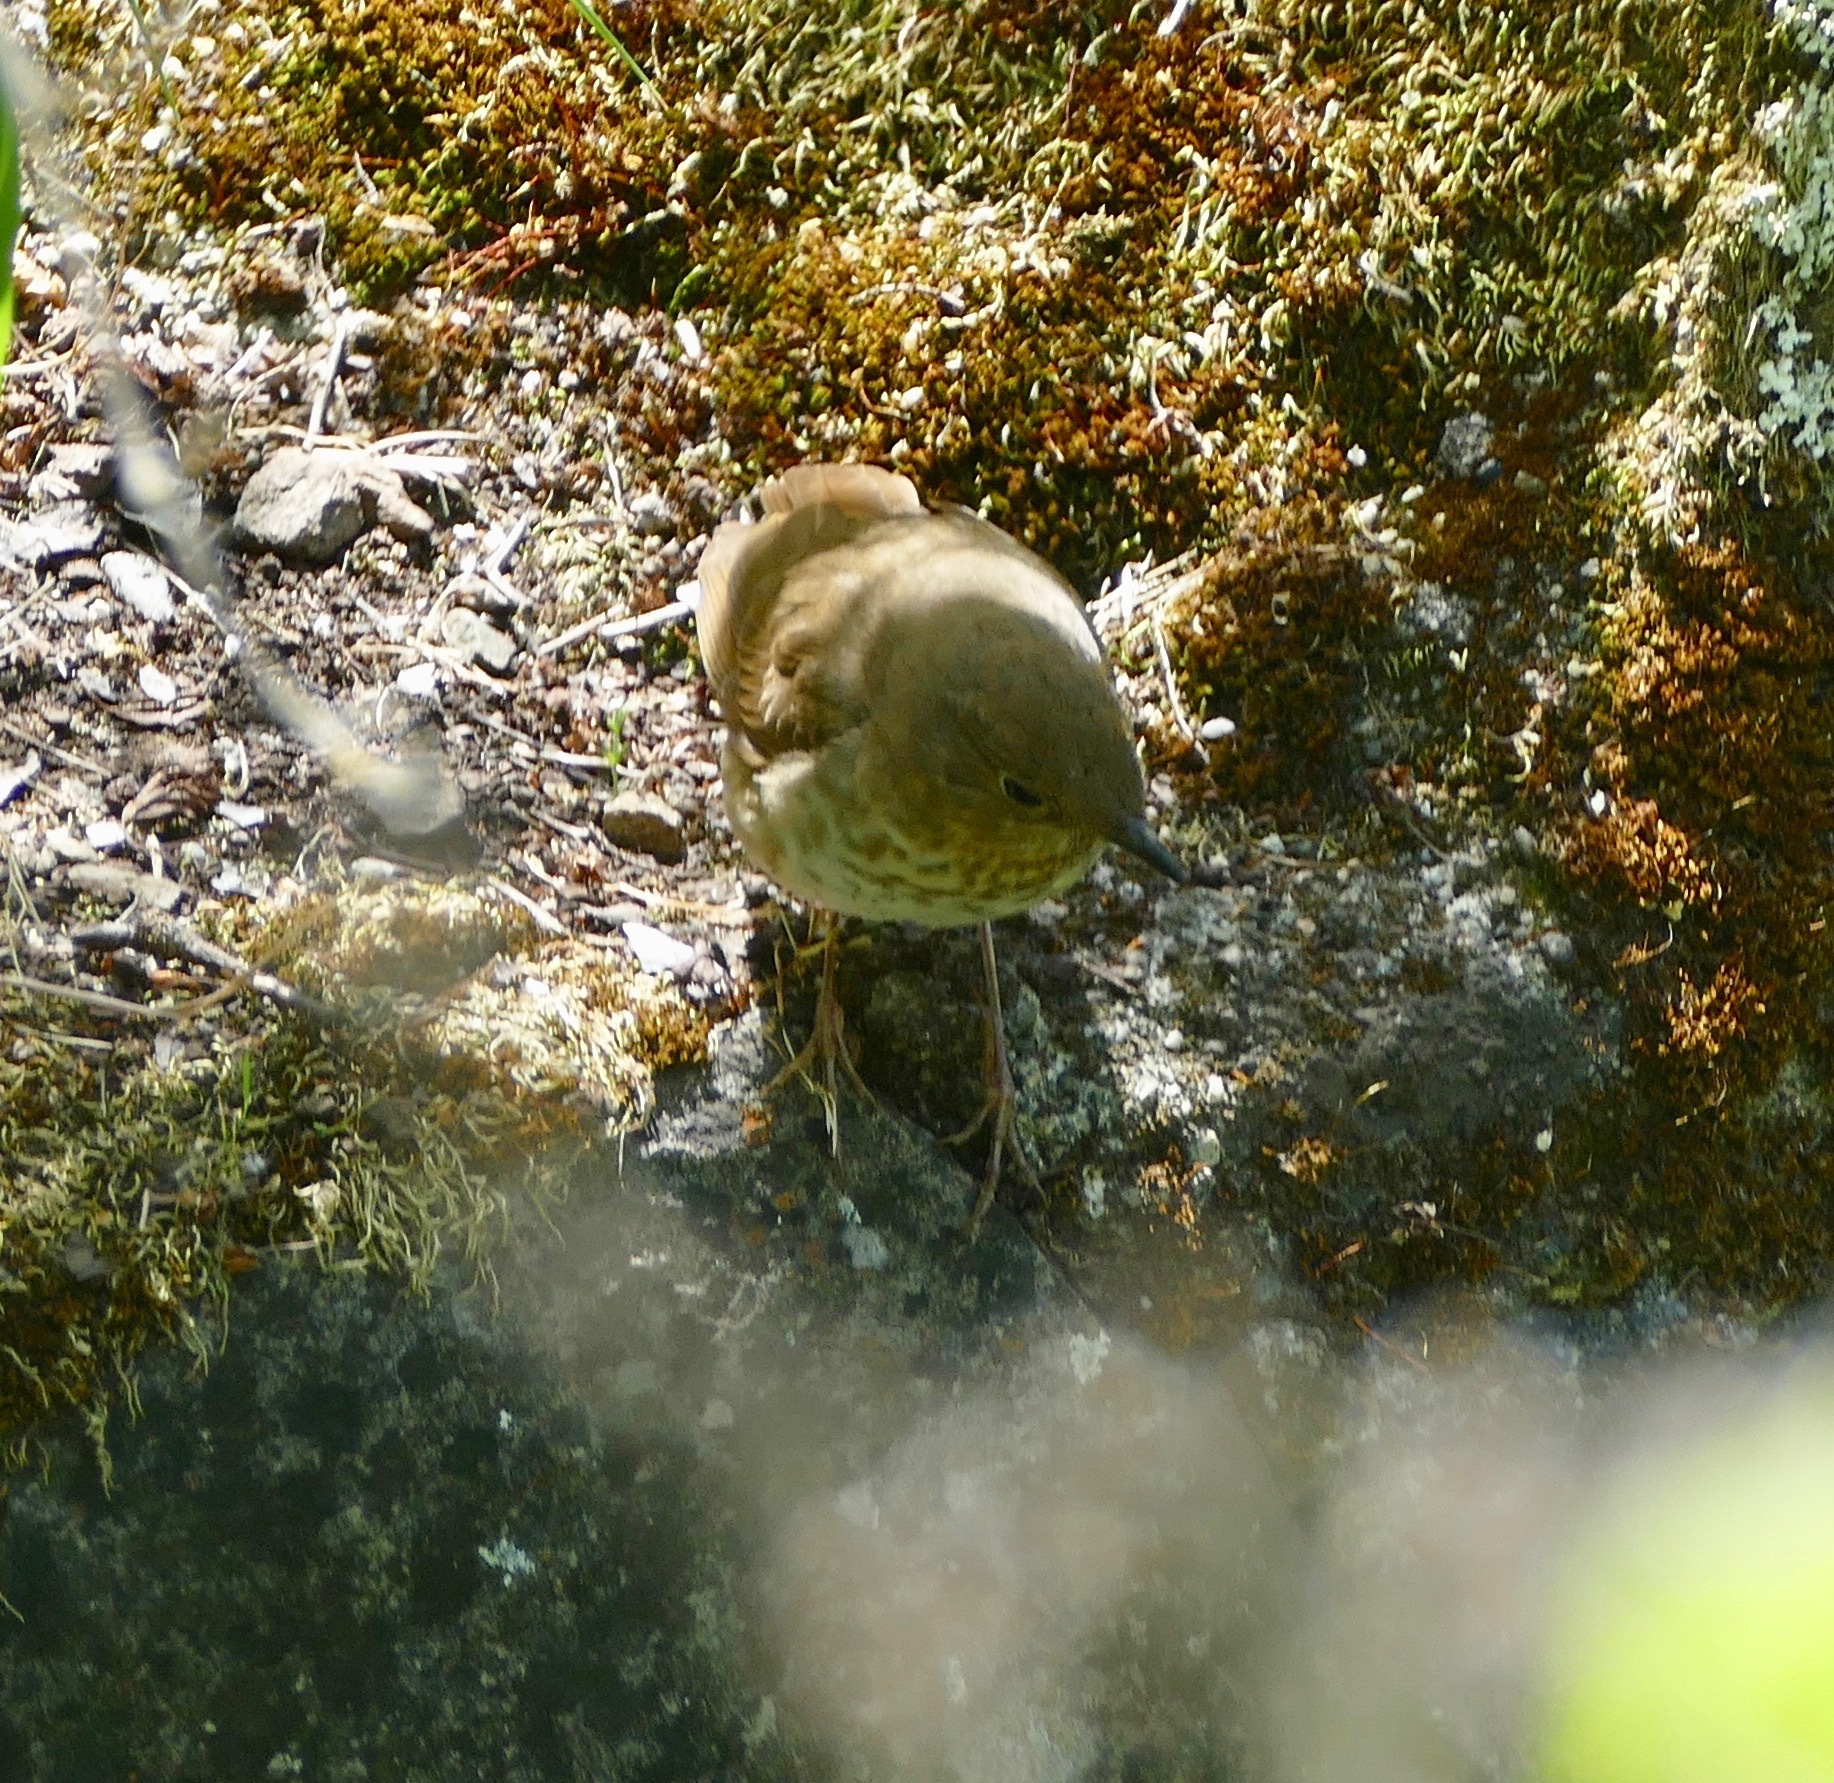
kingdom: Animalia
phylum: Chordata
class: Aves
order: Passeriformes
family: Turdidae
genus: Catharus
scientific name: Catharus ustulatus
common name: Swainson's thrush
